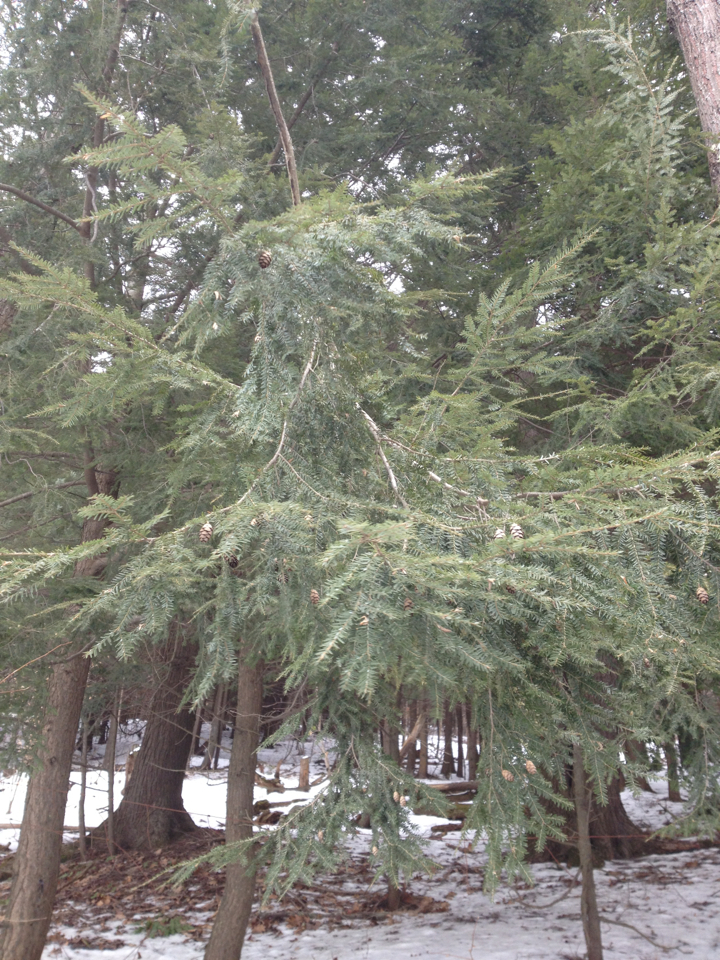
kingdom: Plantae
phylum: Tracheophyta
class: Pinopsida
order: Pinales
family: Pinaceae
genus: Tsuga
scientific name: Tsuga canadensis
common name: Eastern hemlock
